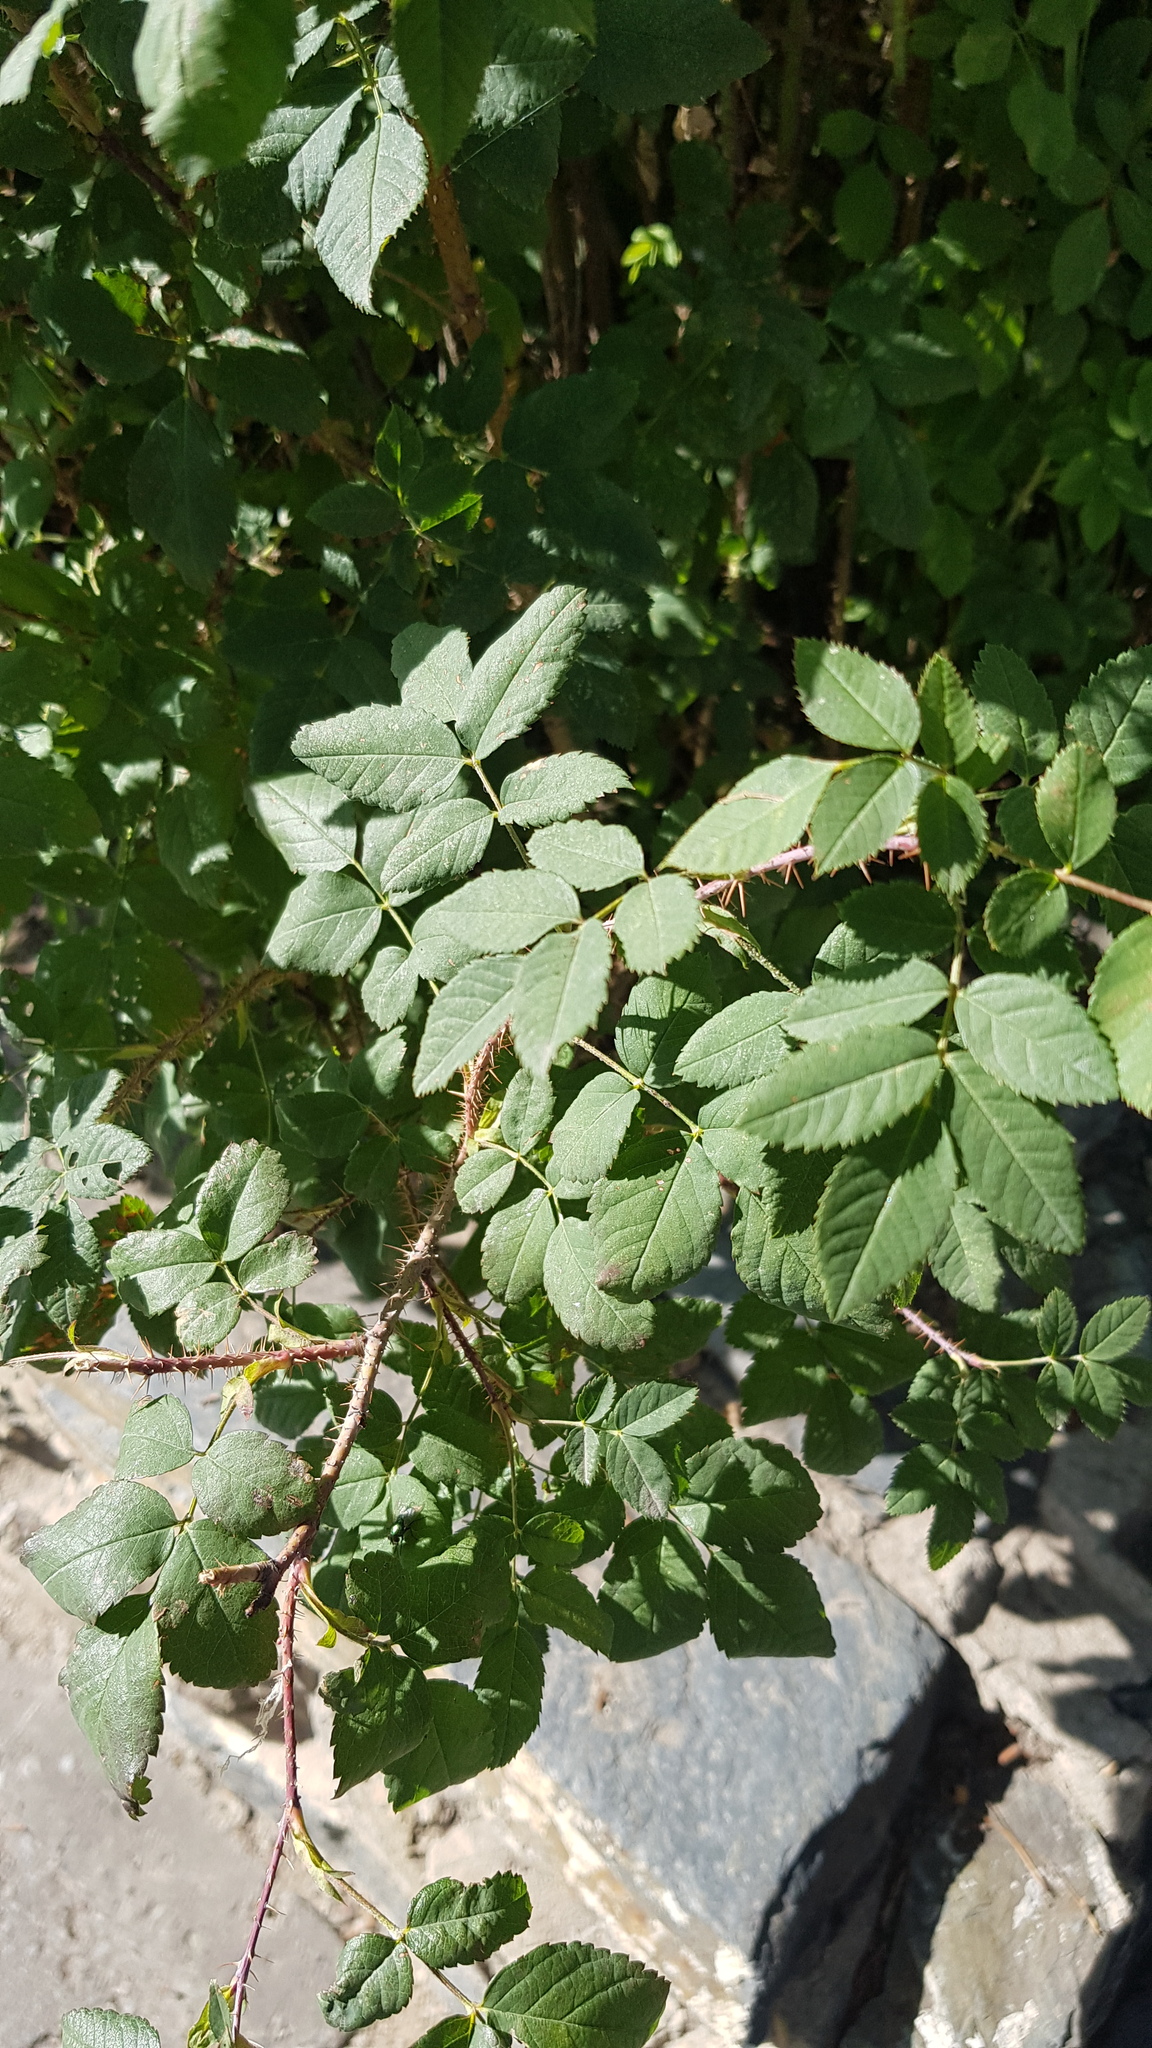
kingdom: Plantae
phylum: Tracheophyta
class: Magnoliopsida
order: Rosales
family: Rosaceae
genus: Rosa
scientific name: Rosa acicularis
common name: Prickly rose
